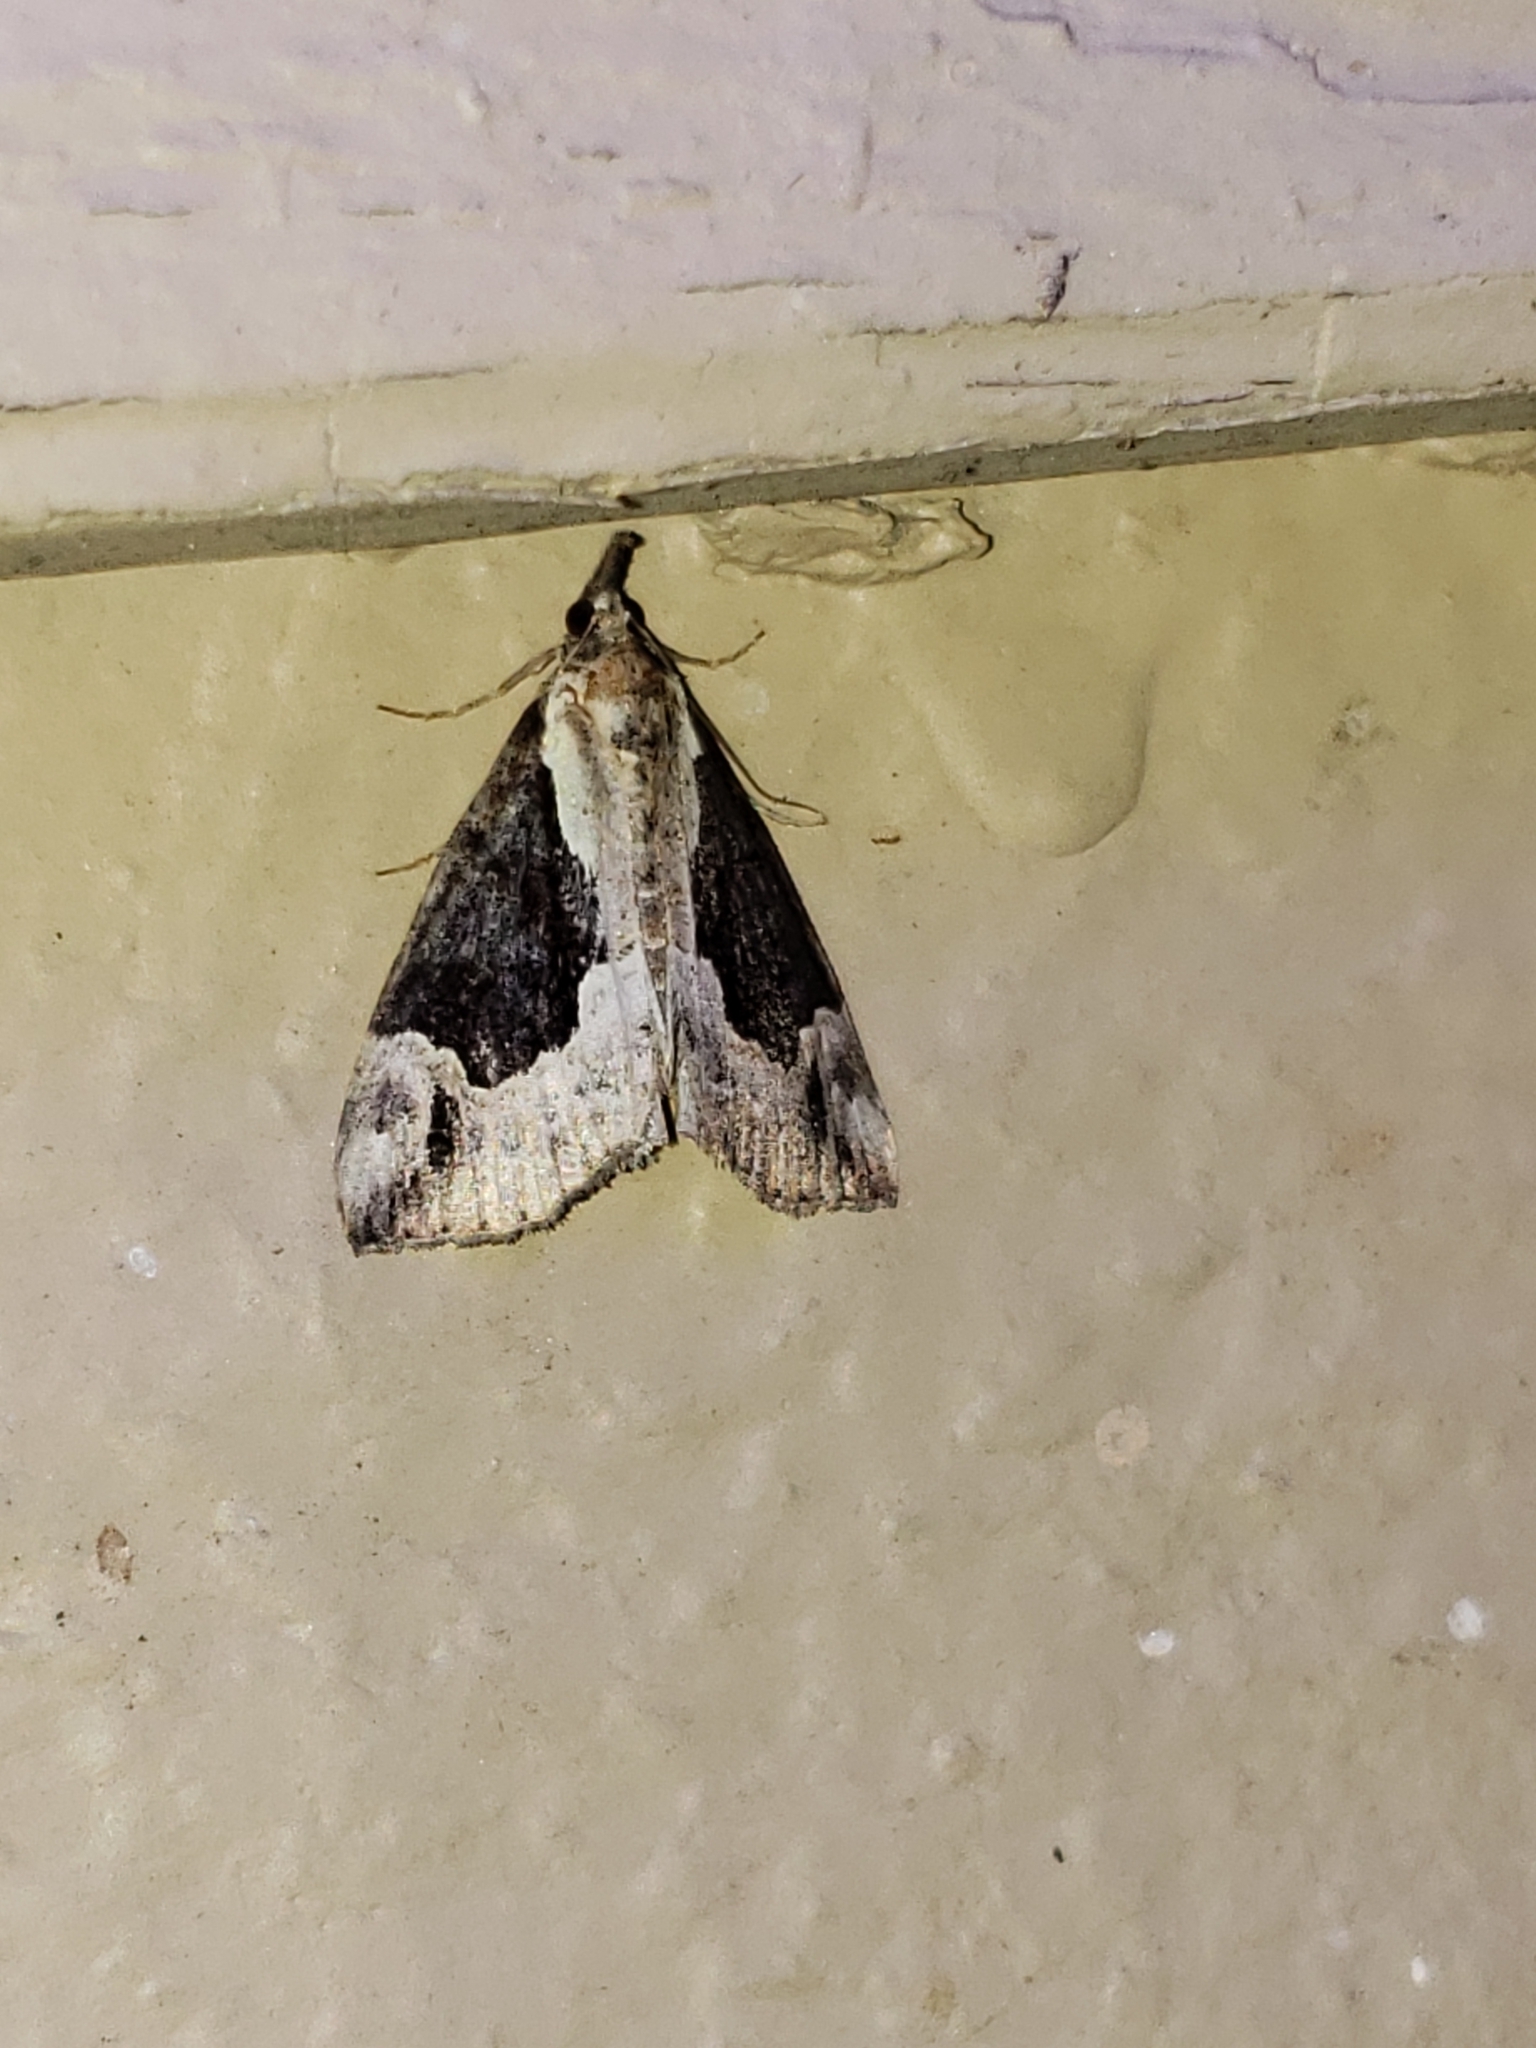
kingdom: Animalia
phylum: Arthropoda
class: Insecta
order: Lepidoptera
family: Erebidae
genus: Hypena
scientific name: Hypena baltimoralis
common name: Baltimore snout
